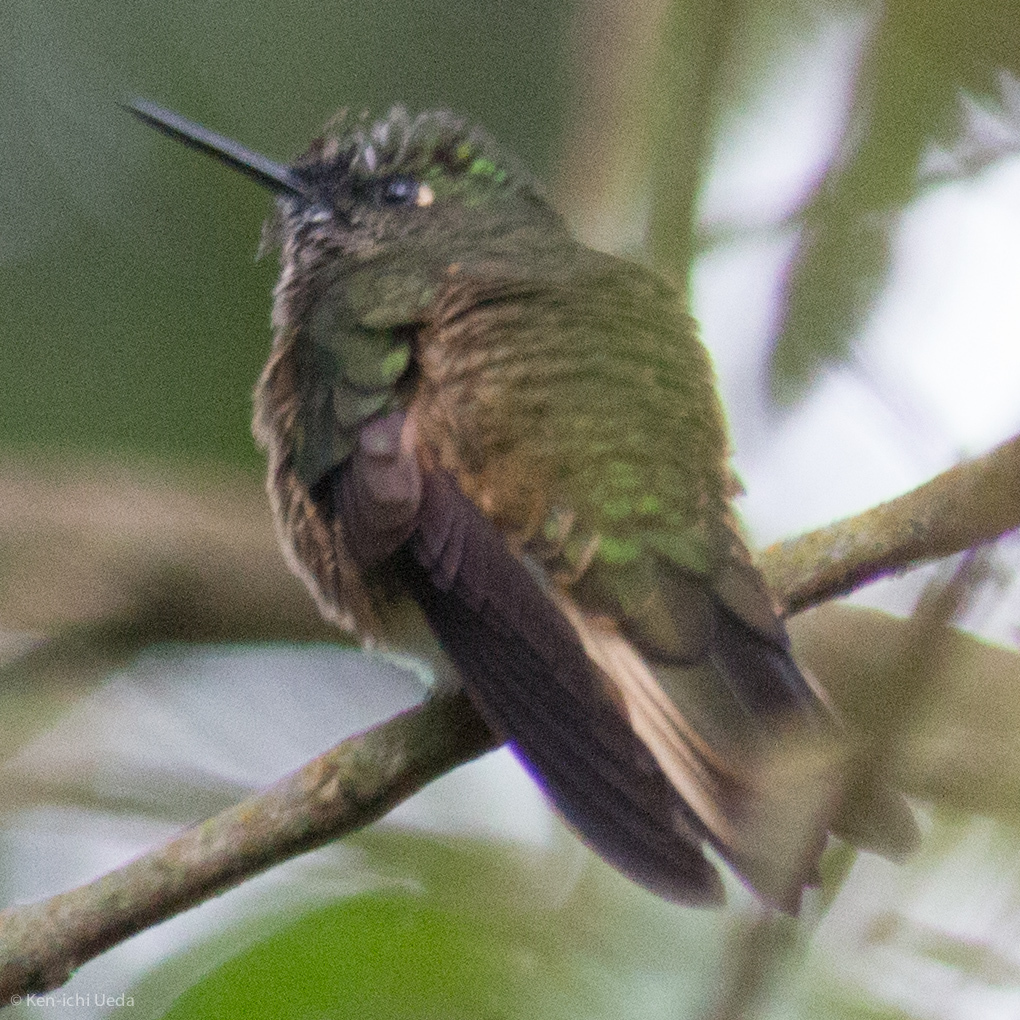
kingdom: Animalia
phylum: Chordata
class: Aves
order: Apodiformes
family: Trochilidae
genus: Boissonneaua
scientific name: Boissonneaua flavescens
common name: Buff-tailed coronet
